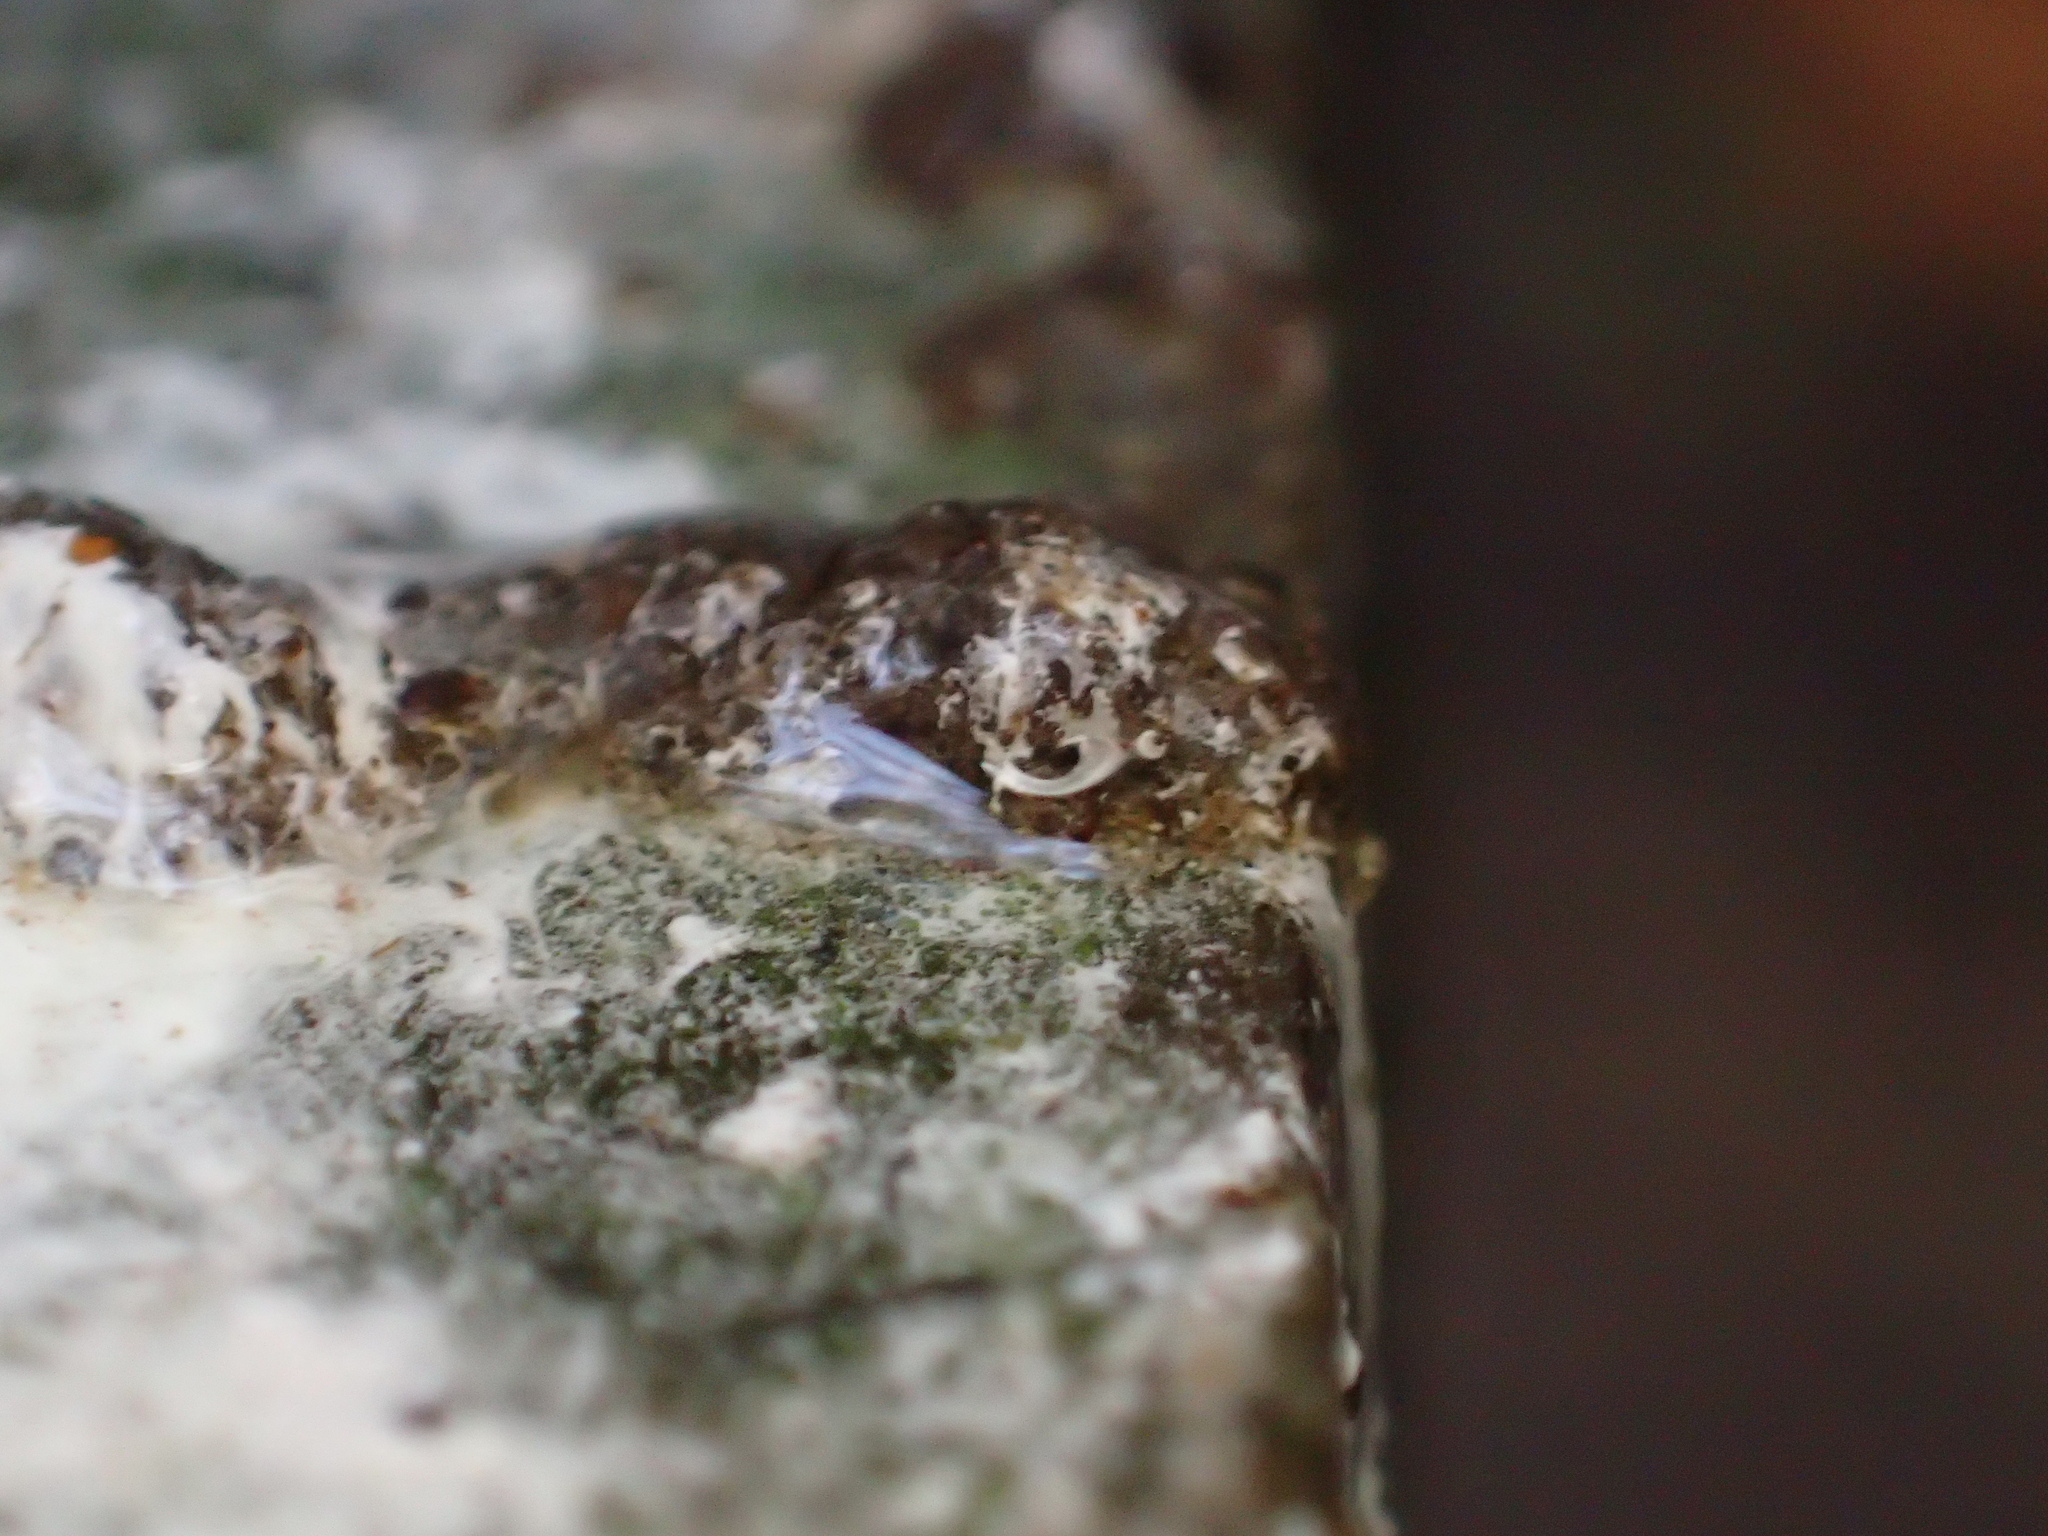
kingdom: Animalia
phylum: Chordata
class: Aves
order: Passeriformes
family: Turdidae
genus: Turdus
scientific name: Turdus merula
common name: Common blackbird
